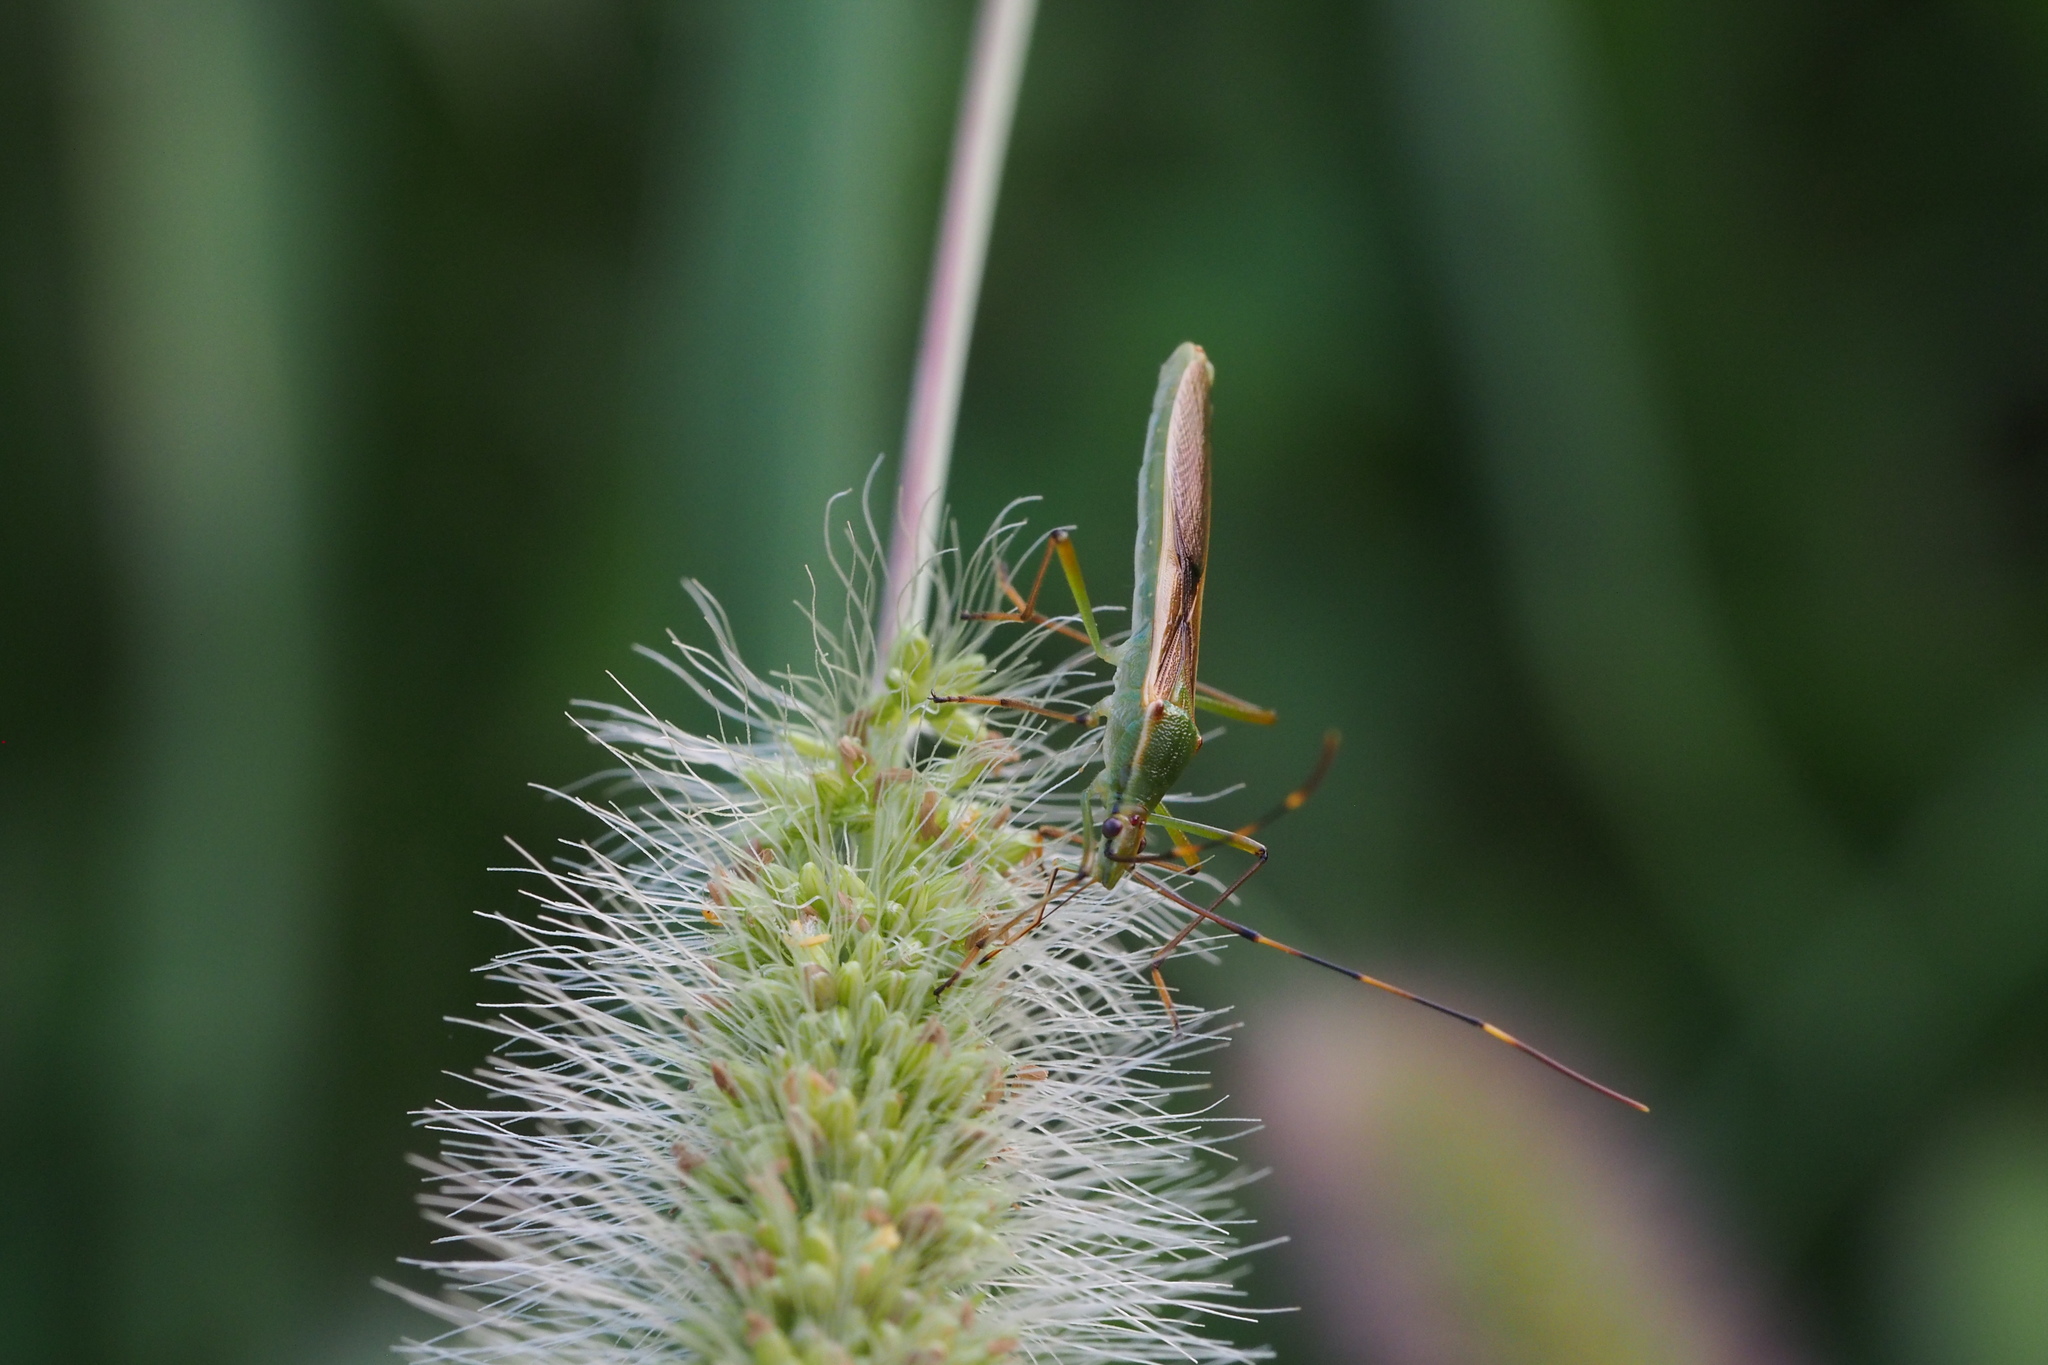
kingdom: Animalia
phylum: Arthropoda
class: Insecta
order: Hemiptera
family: Alydidae
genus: Leptocorisa
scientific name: Leptocorisa chinensis
